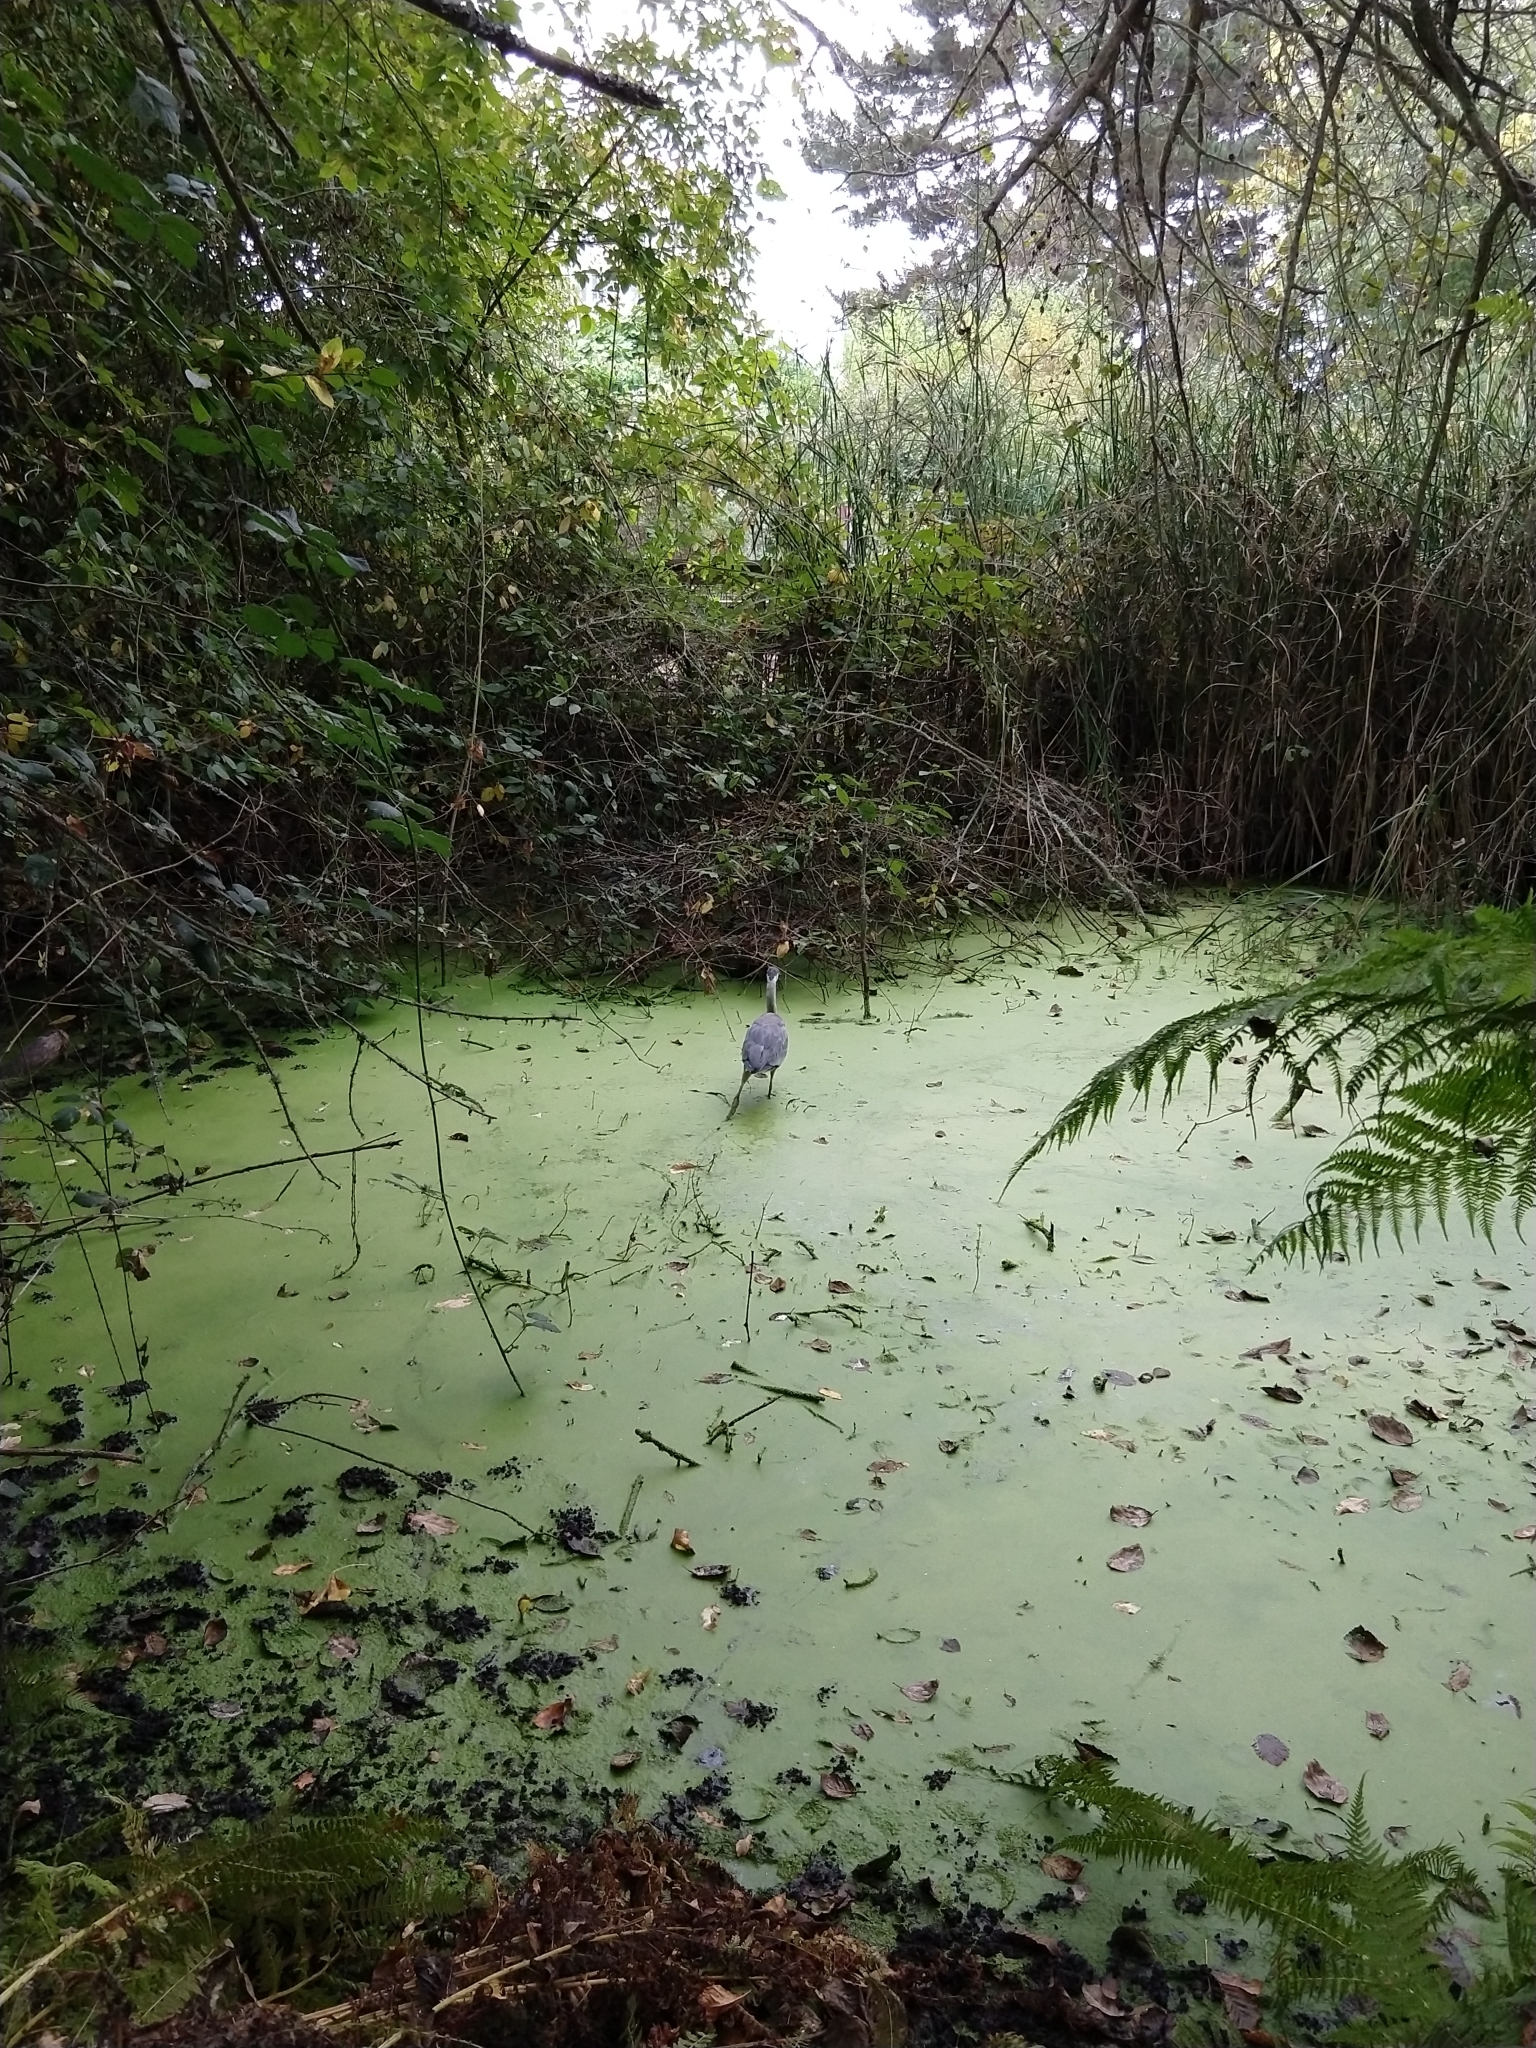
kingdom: Animalia
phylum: Chordata
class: Aves
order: Pelecaniformes
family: Ardeidae
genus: Ardea
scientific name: Ardea herodias
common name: Great blue heron
